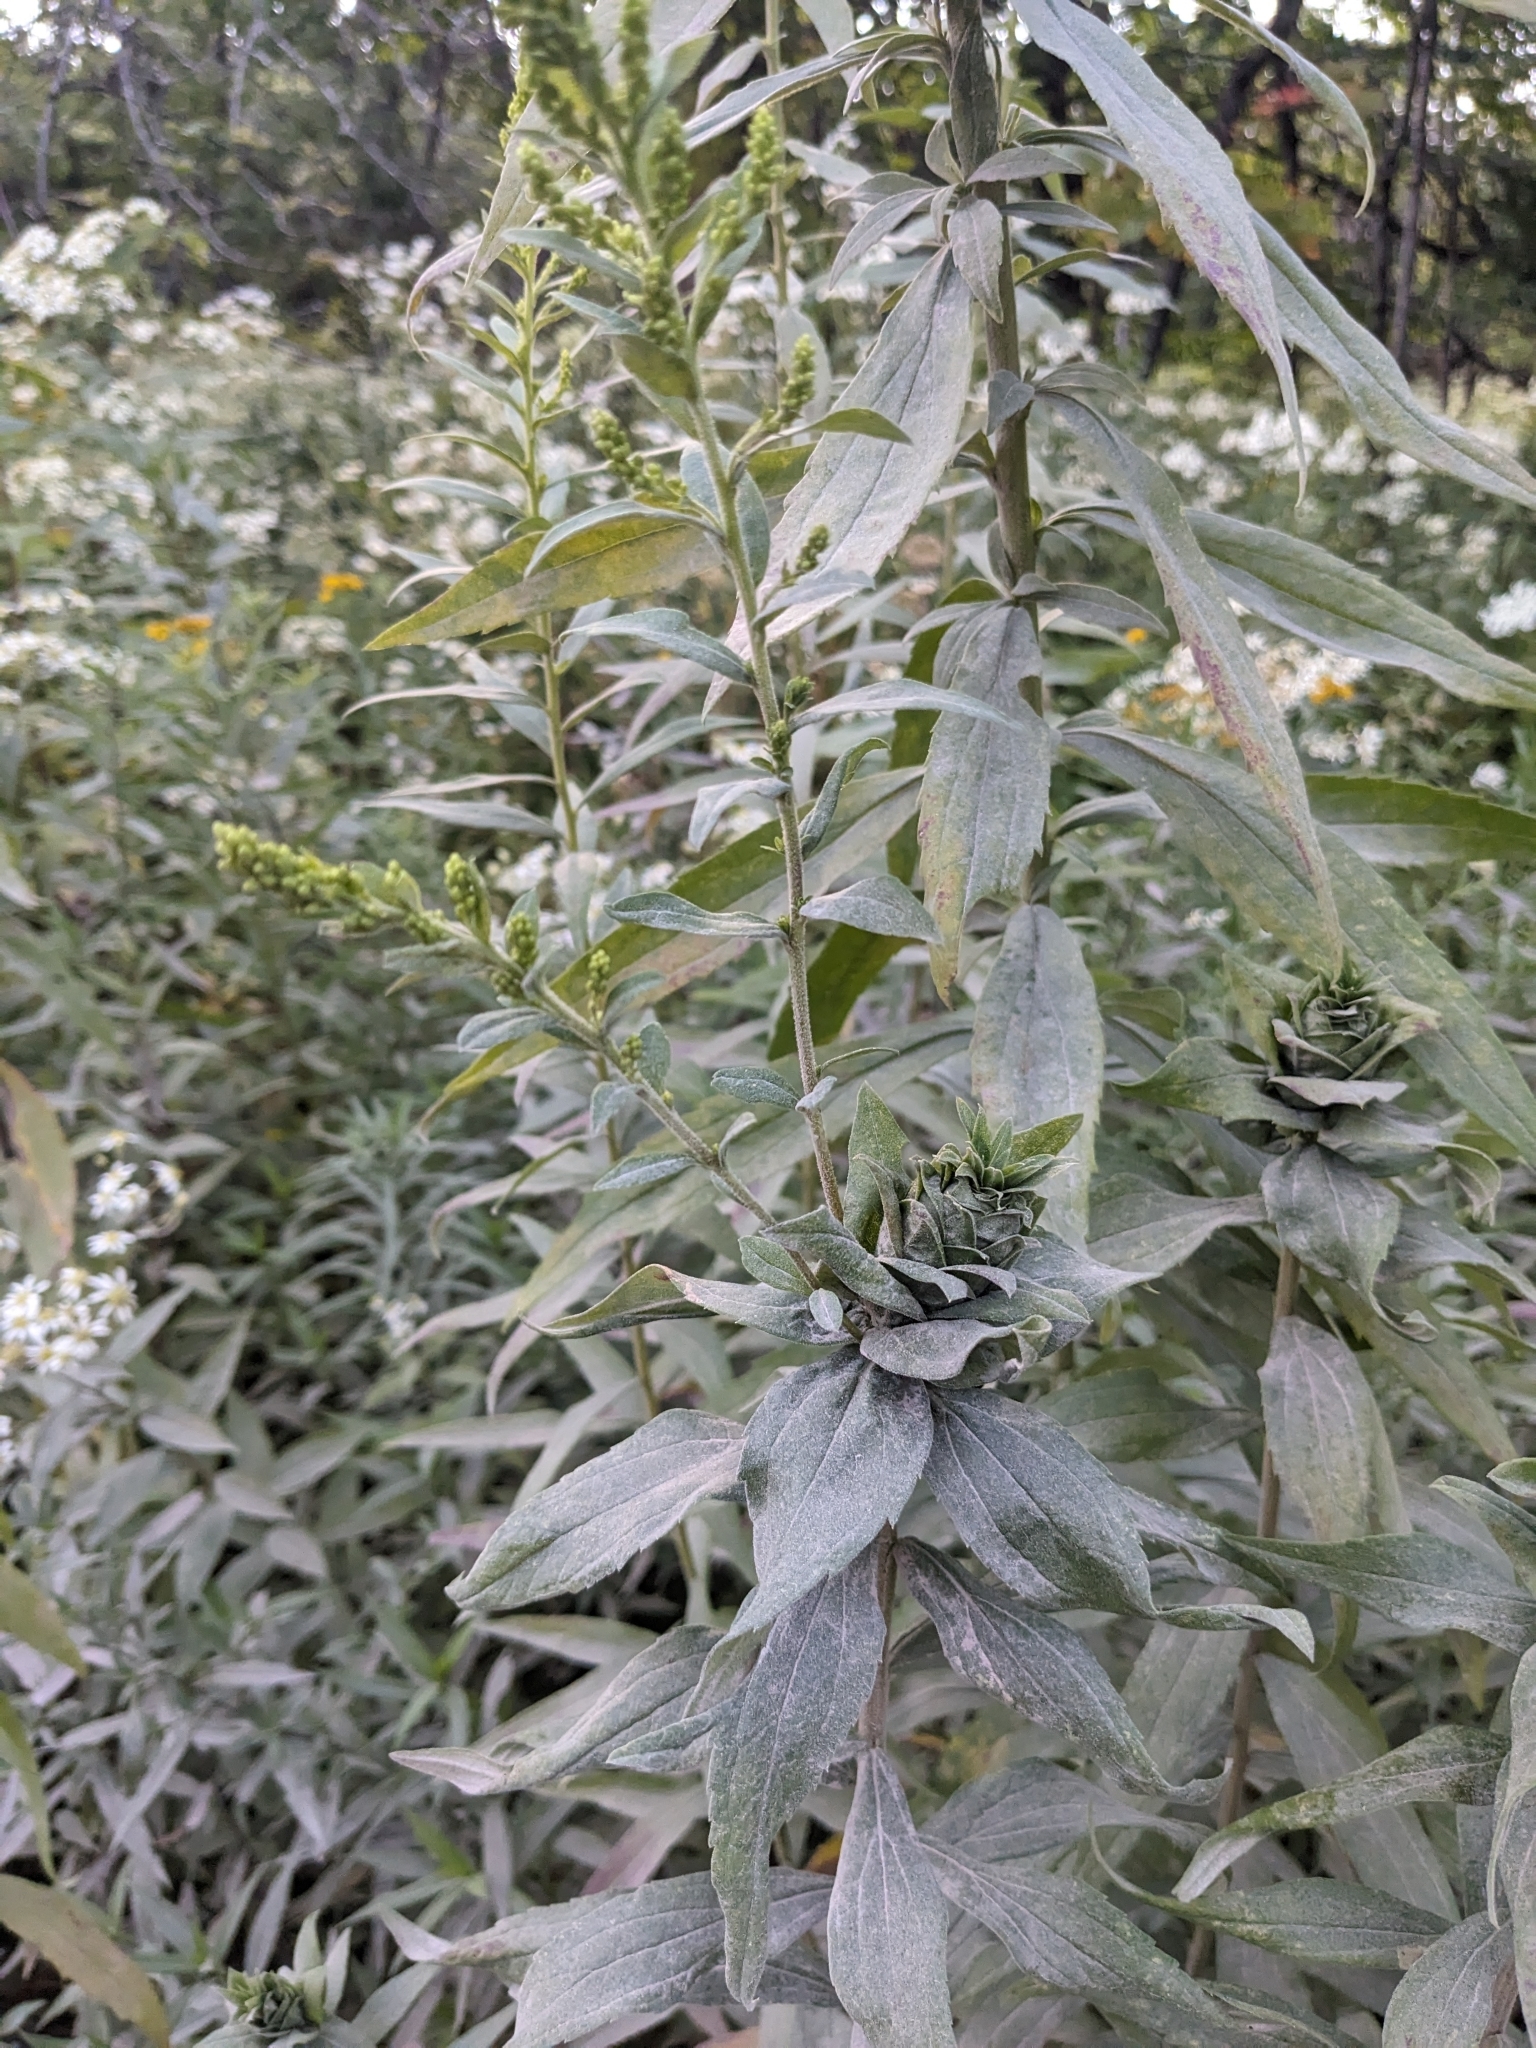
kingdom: Animalia
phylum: Arthropoda
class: Insecta
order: Diptera
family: Cecidomyiidae
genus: Rhopalomyia
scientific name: Rhopalomyia solidaginis
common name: Goldenrod bunch gall midge
